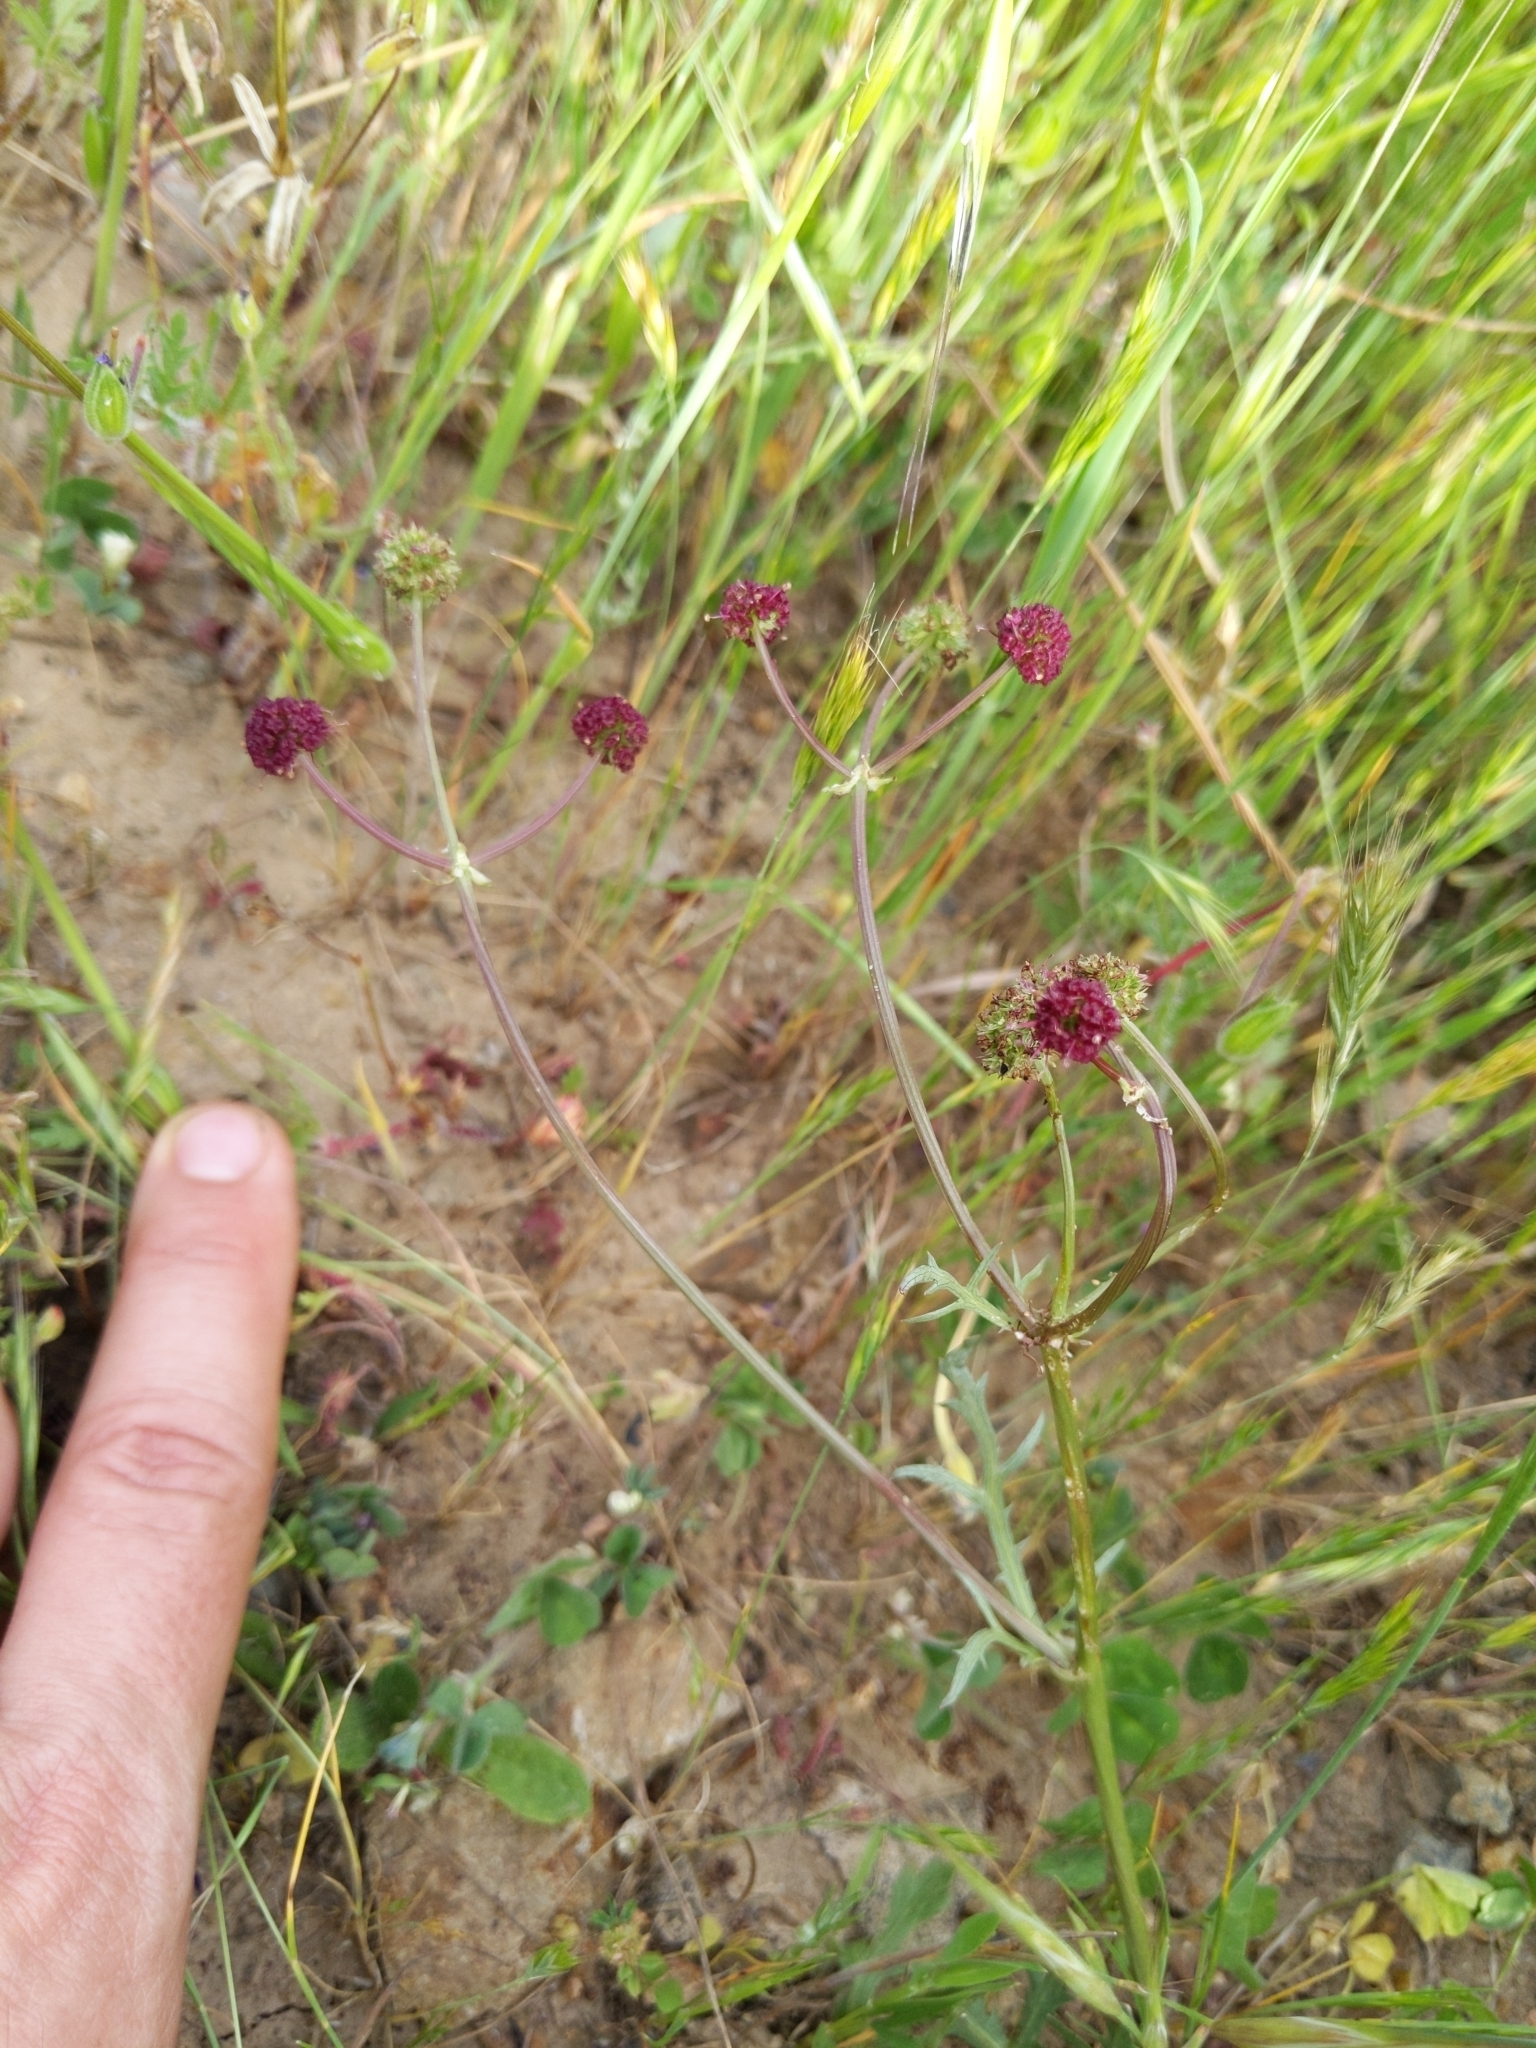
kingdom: Plantae
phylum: Tracheophyta
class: Magnoliopsida
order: Apiales
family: Apiaceae
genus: Sanicula
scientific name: Sanicula bipinnatifida
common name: Shoe-buttons
